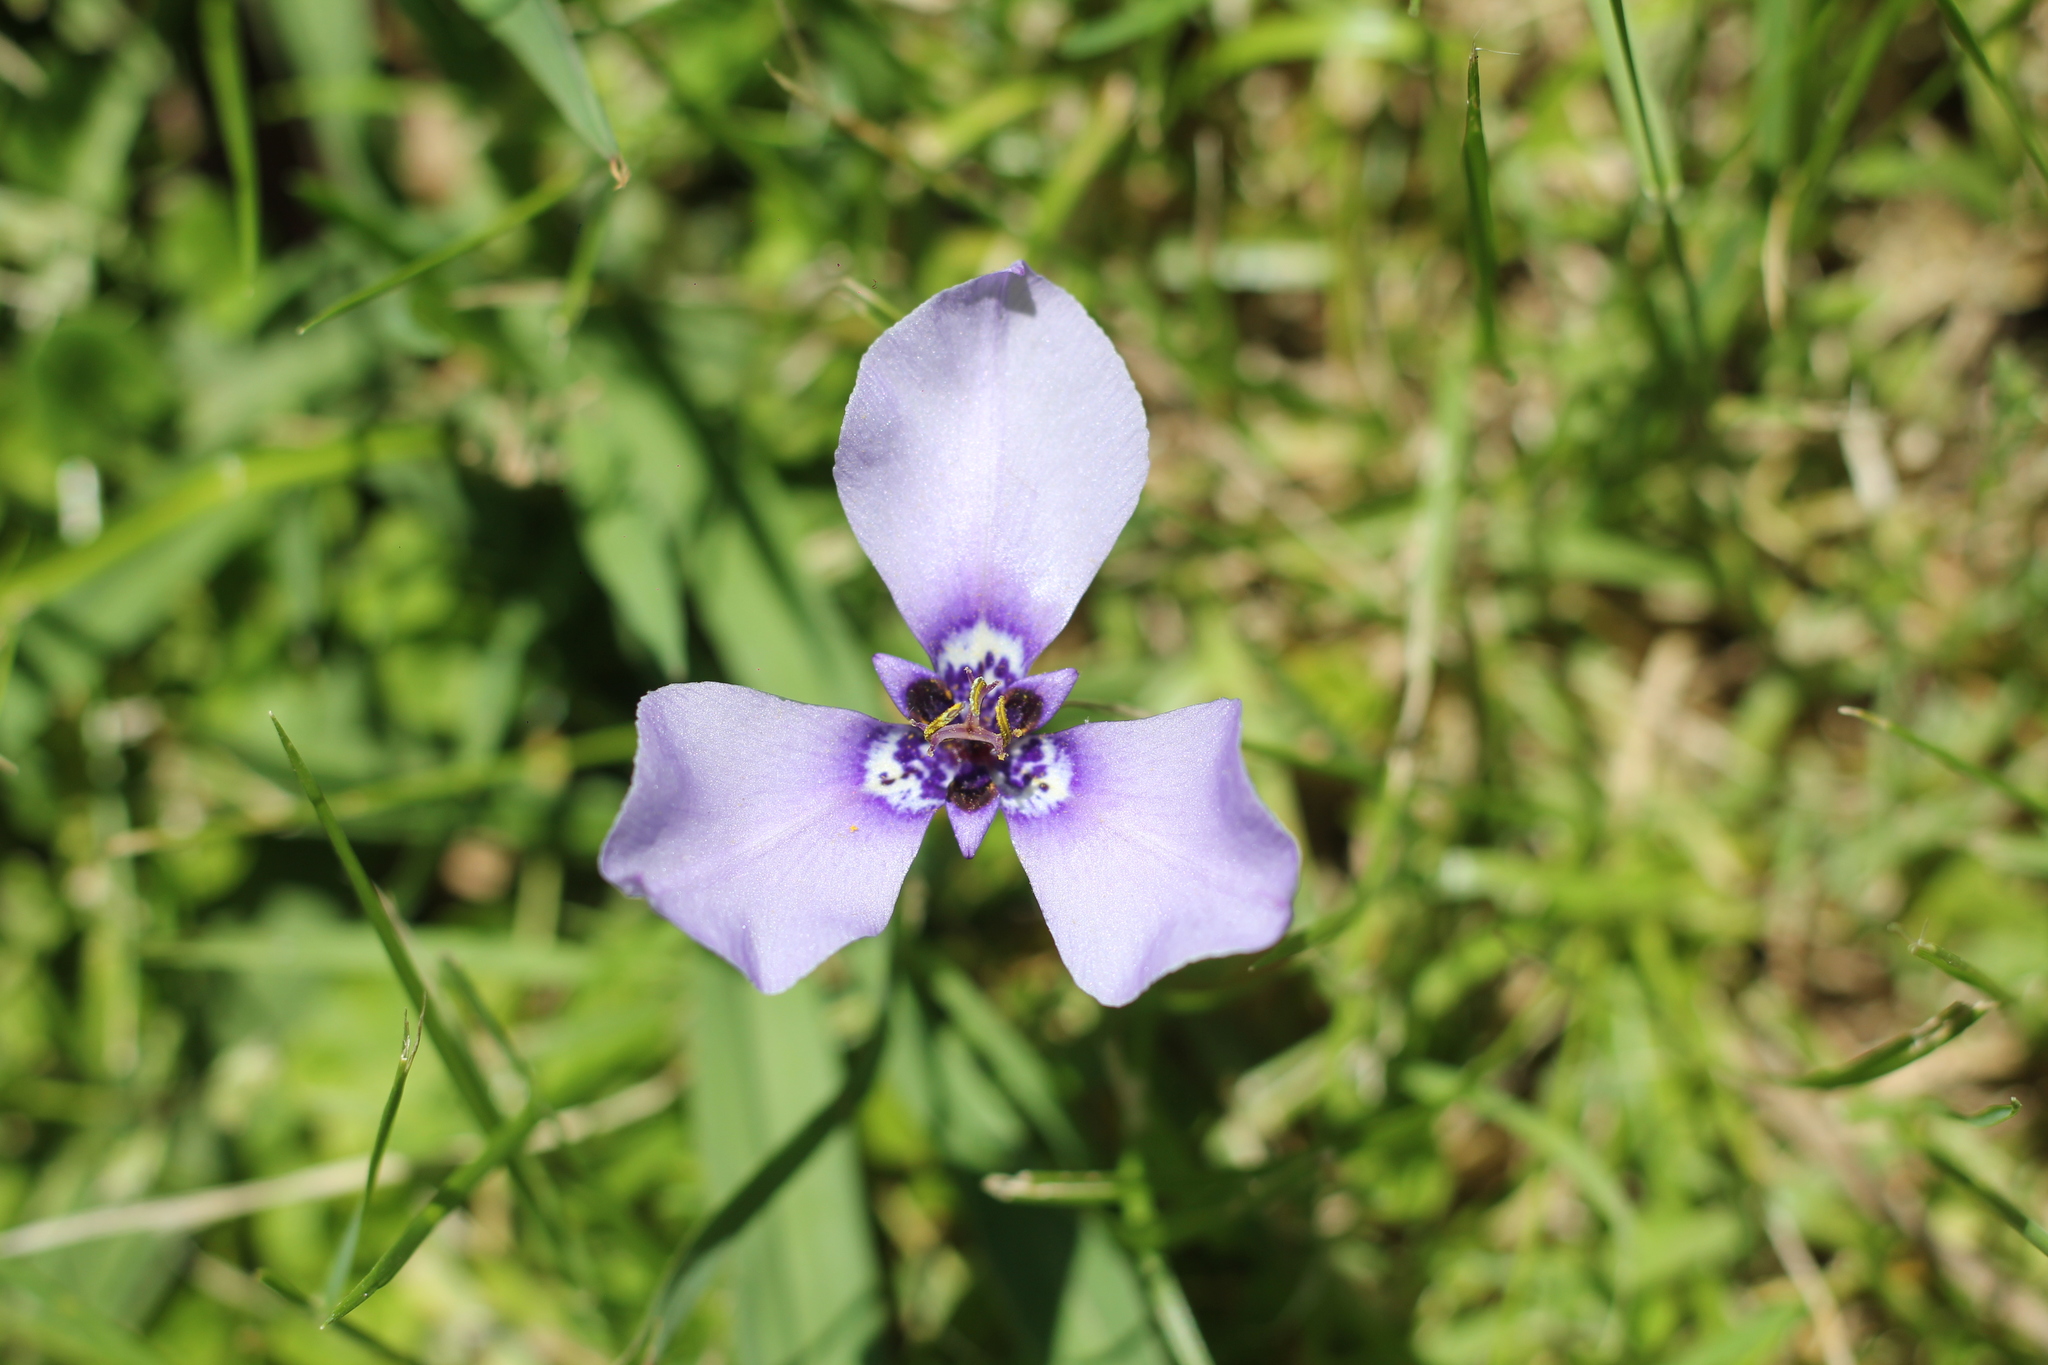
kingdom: Plantae
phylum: Tracheophyta
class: Liliopsida
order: Asparagales
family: Iridaceae
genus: Herbertia
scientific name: Herbertia lahue
